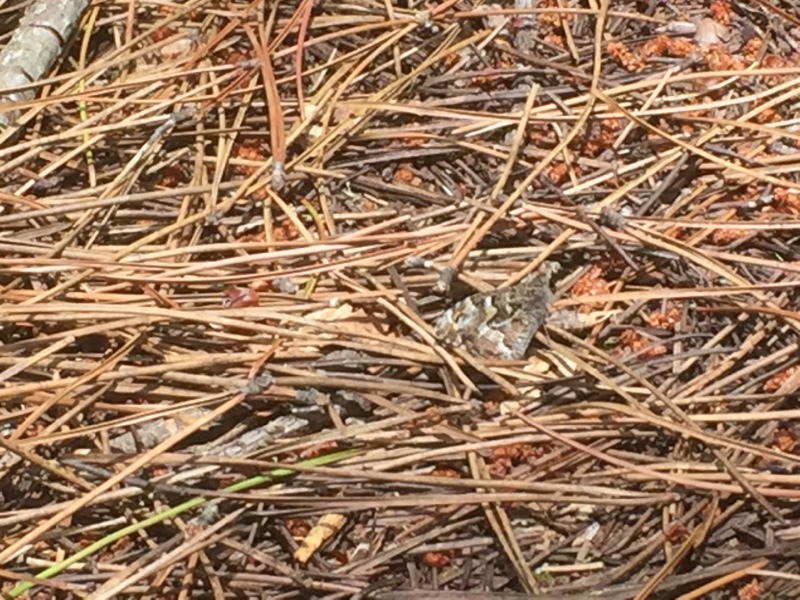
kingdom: Animalia
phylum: Arthropoda
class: Insecta
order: Lepidoptera
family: Nymphalidae
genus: Hipparchia
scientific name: Hipparchia semele
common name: Grayling
